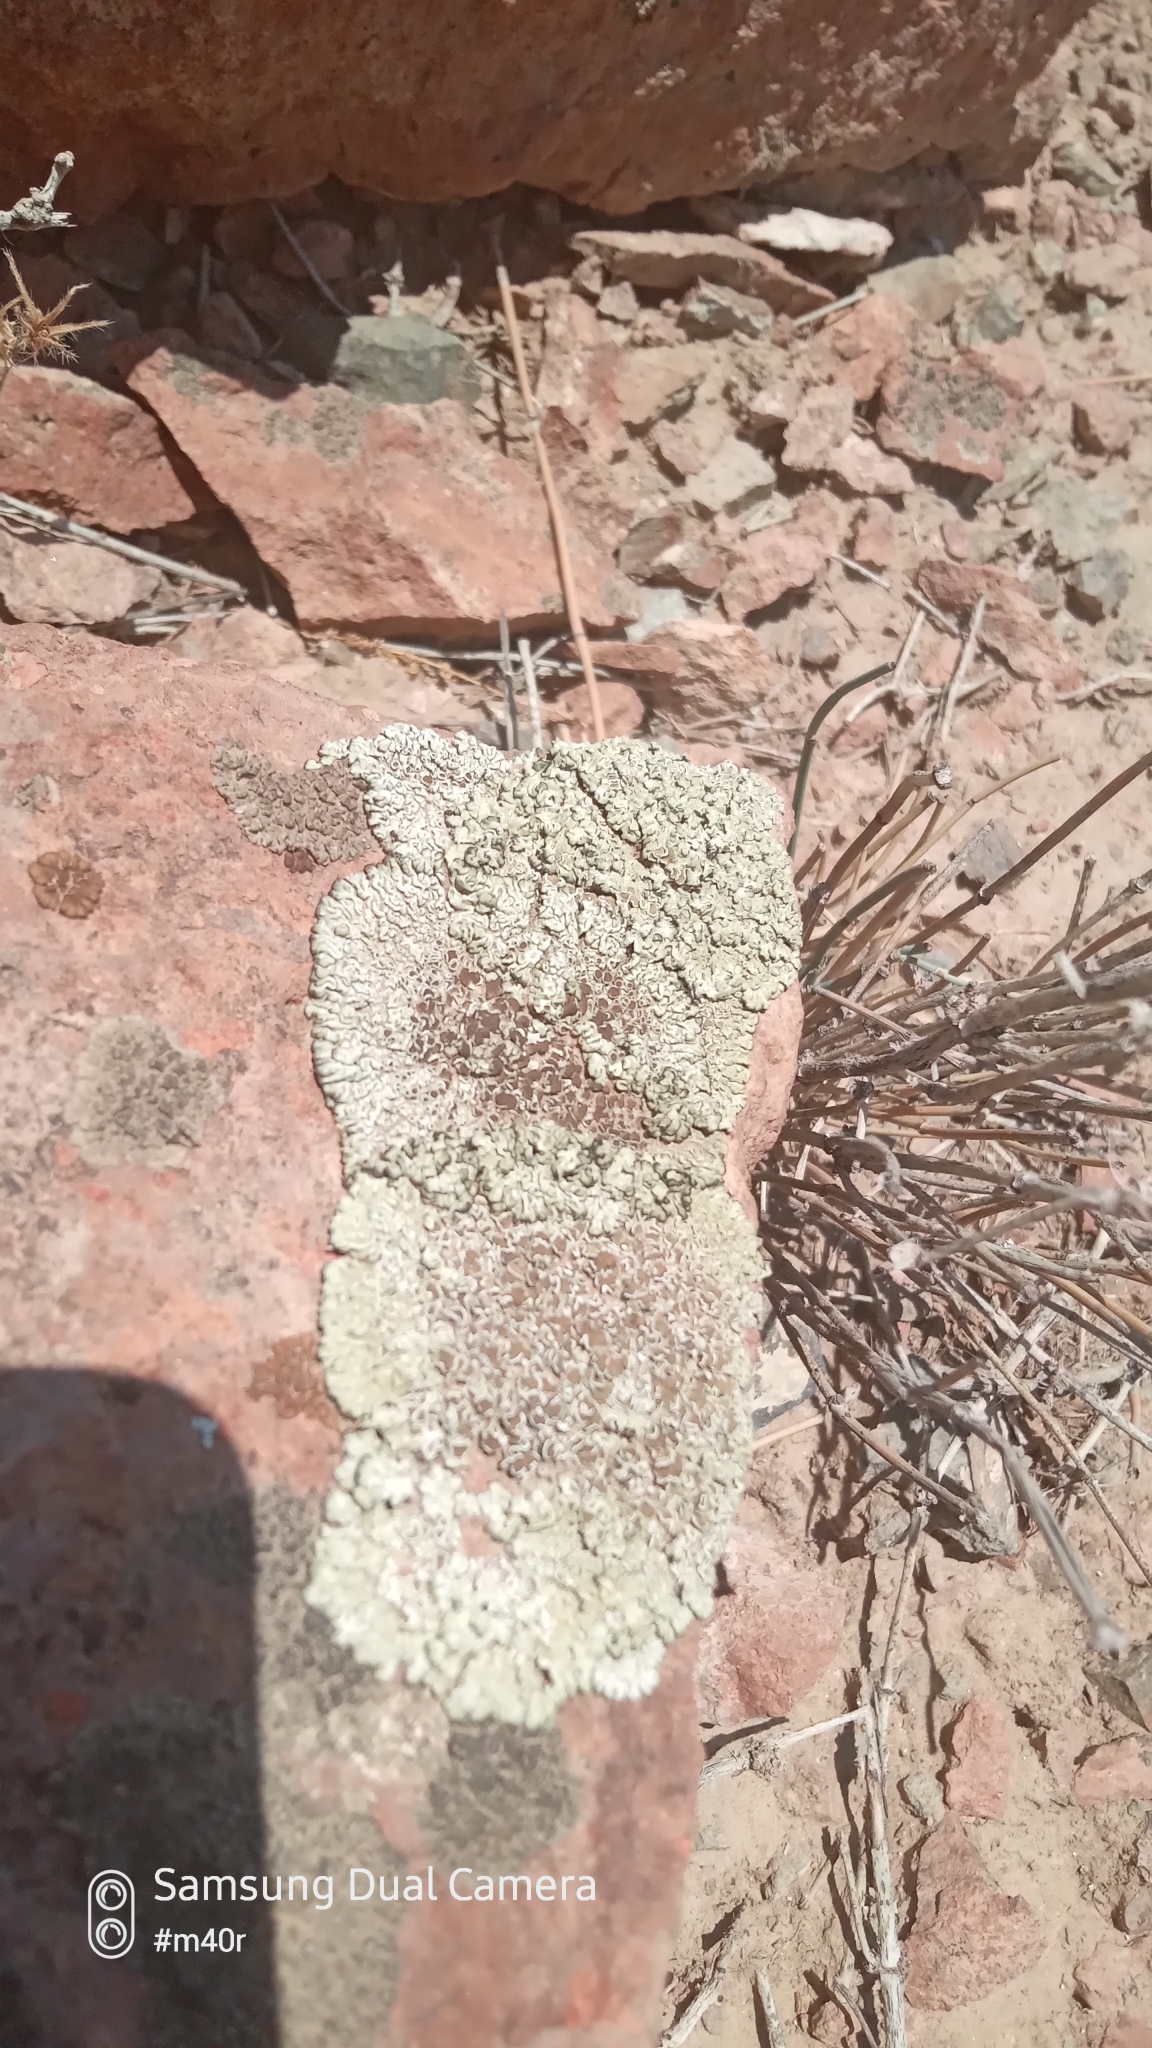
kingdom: Fungi
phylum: Ascomycota
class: Lecanoromycetes
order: Lecanorales
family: Lecanoraceae
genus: Protoparmeliopsis
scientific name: Protoparmeliopsis garovaglii
